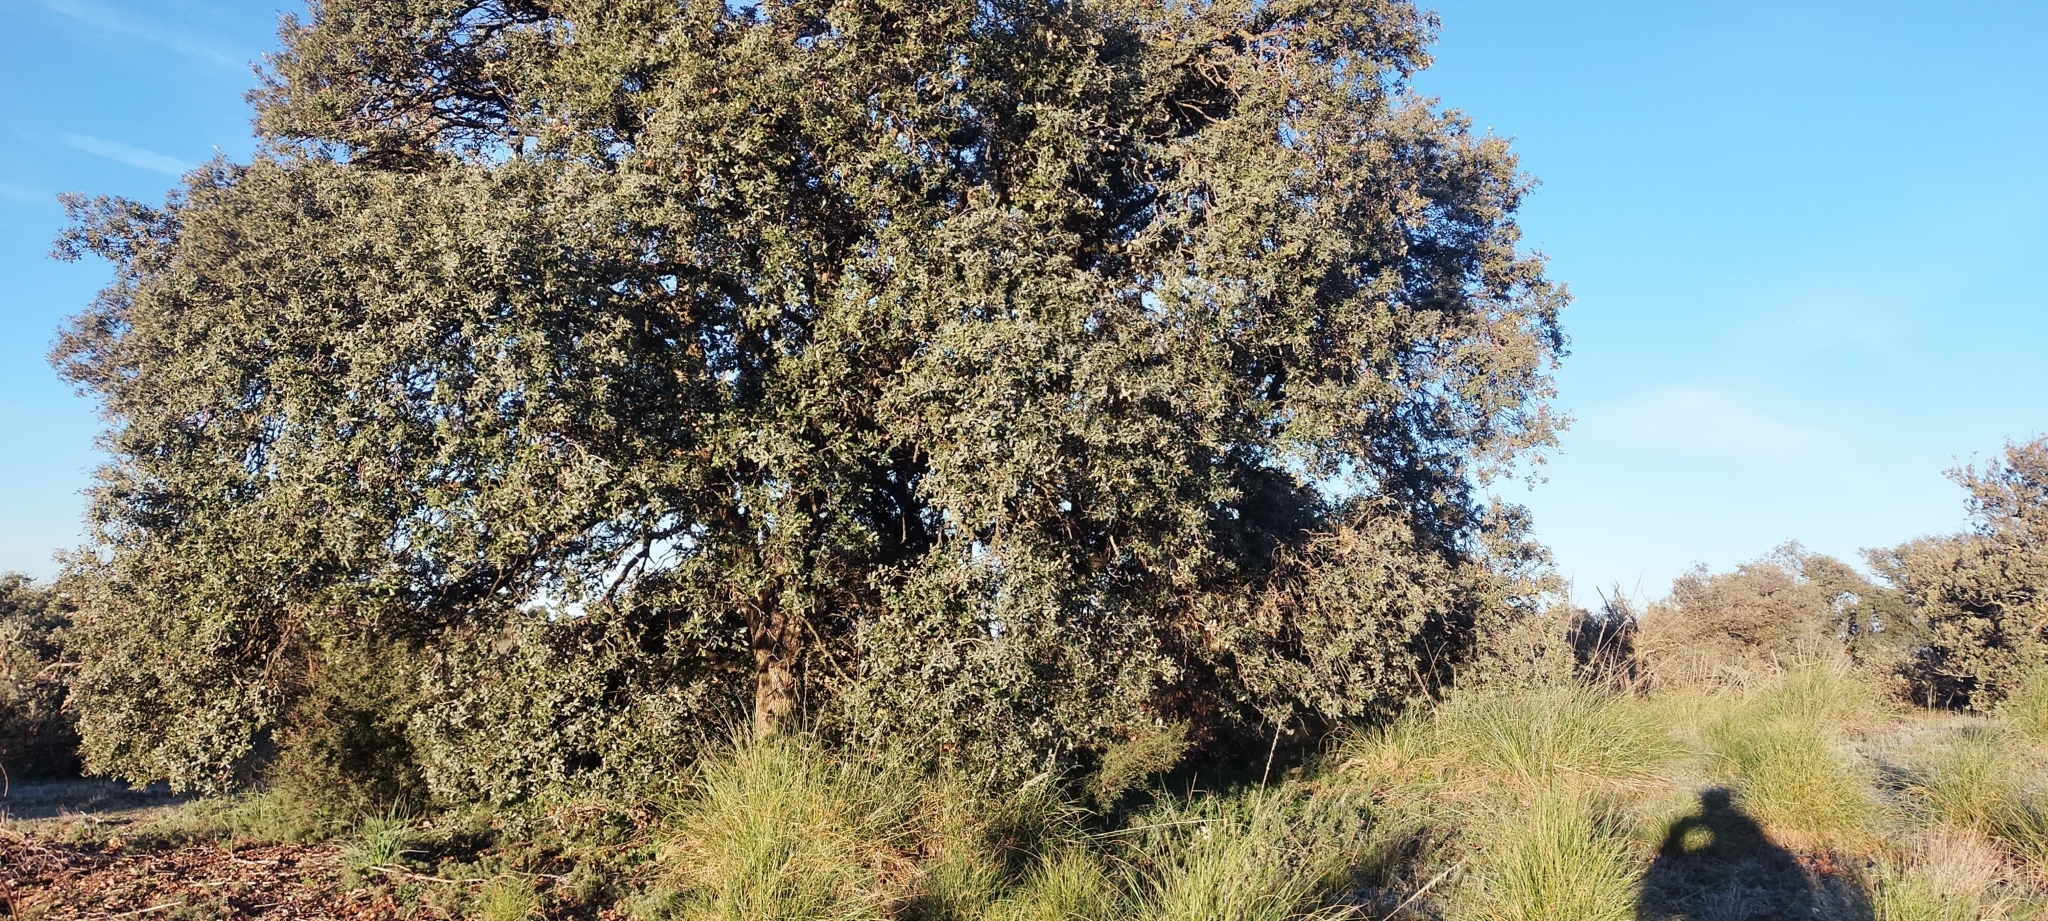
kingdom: Plantae
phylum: Tracheophyta
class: Magnoliopsida
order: Fagales
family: Fagaceae
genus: Quercus
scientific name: Quercus rotundifolia
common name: Holm oak
